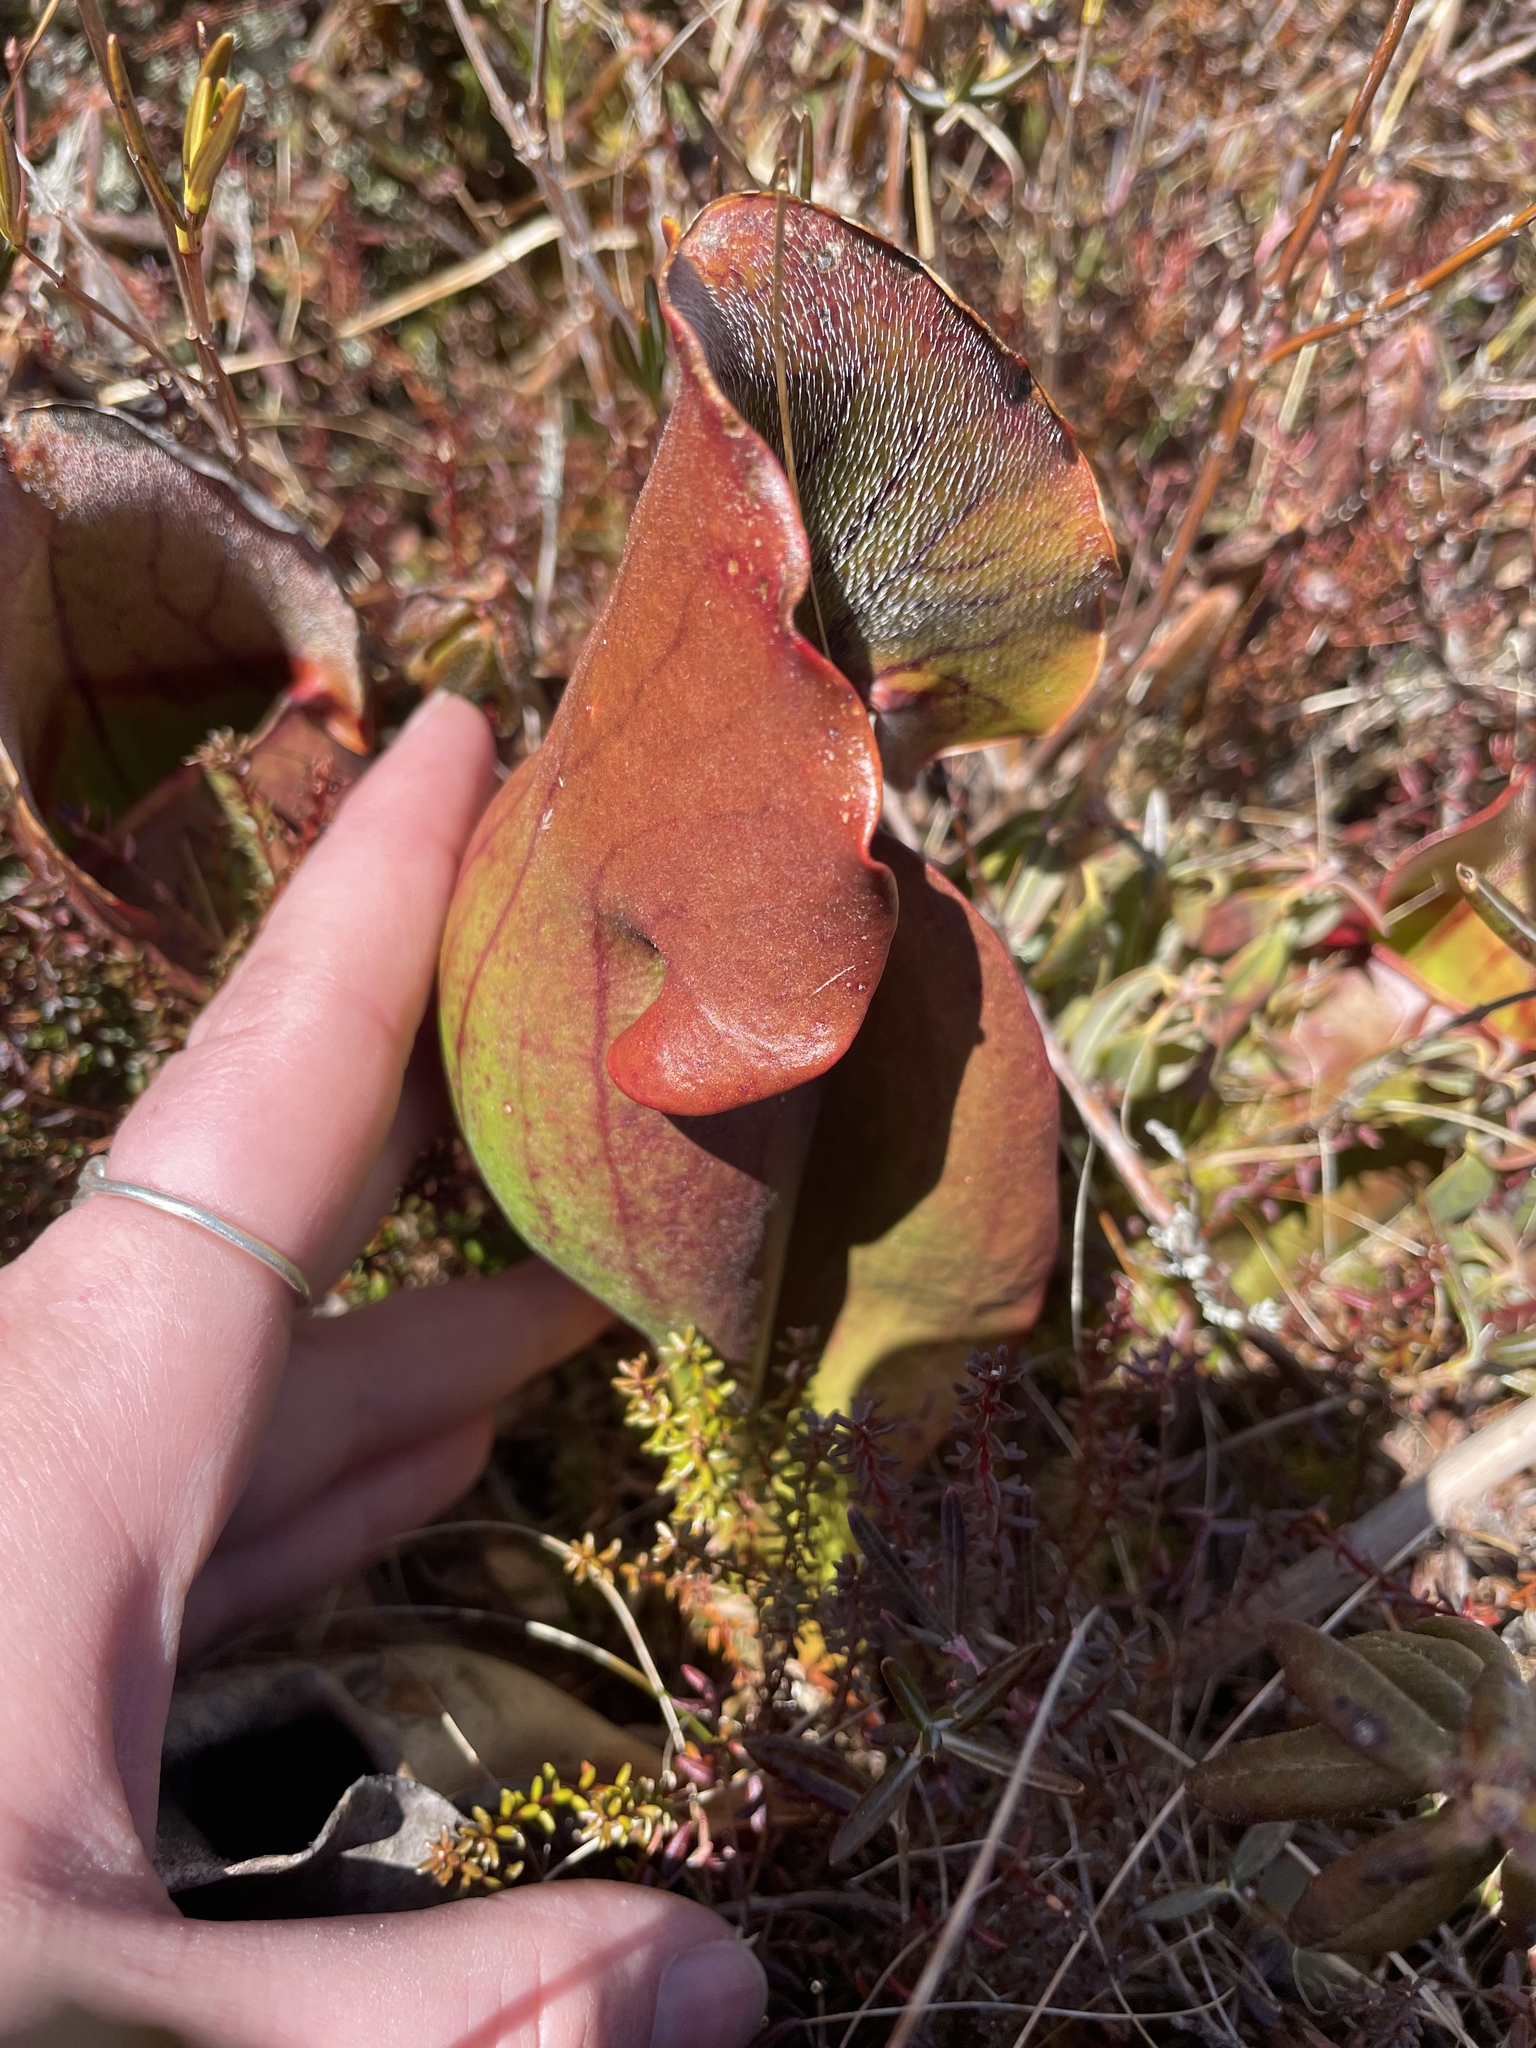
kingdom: Plantae
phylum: Tracheophyta
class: Magnoliopsida
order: Ericales
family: Sarraceniaceae
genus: Sarracenia
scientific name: Sarracenia purpurea
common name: Pitcherplant
